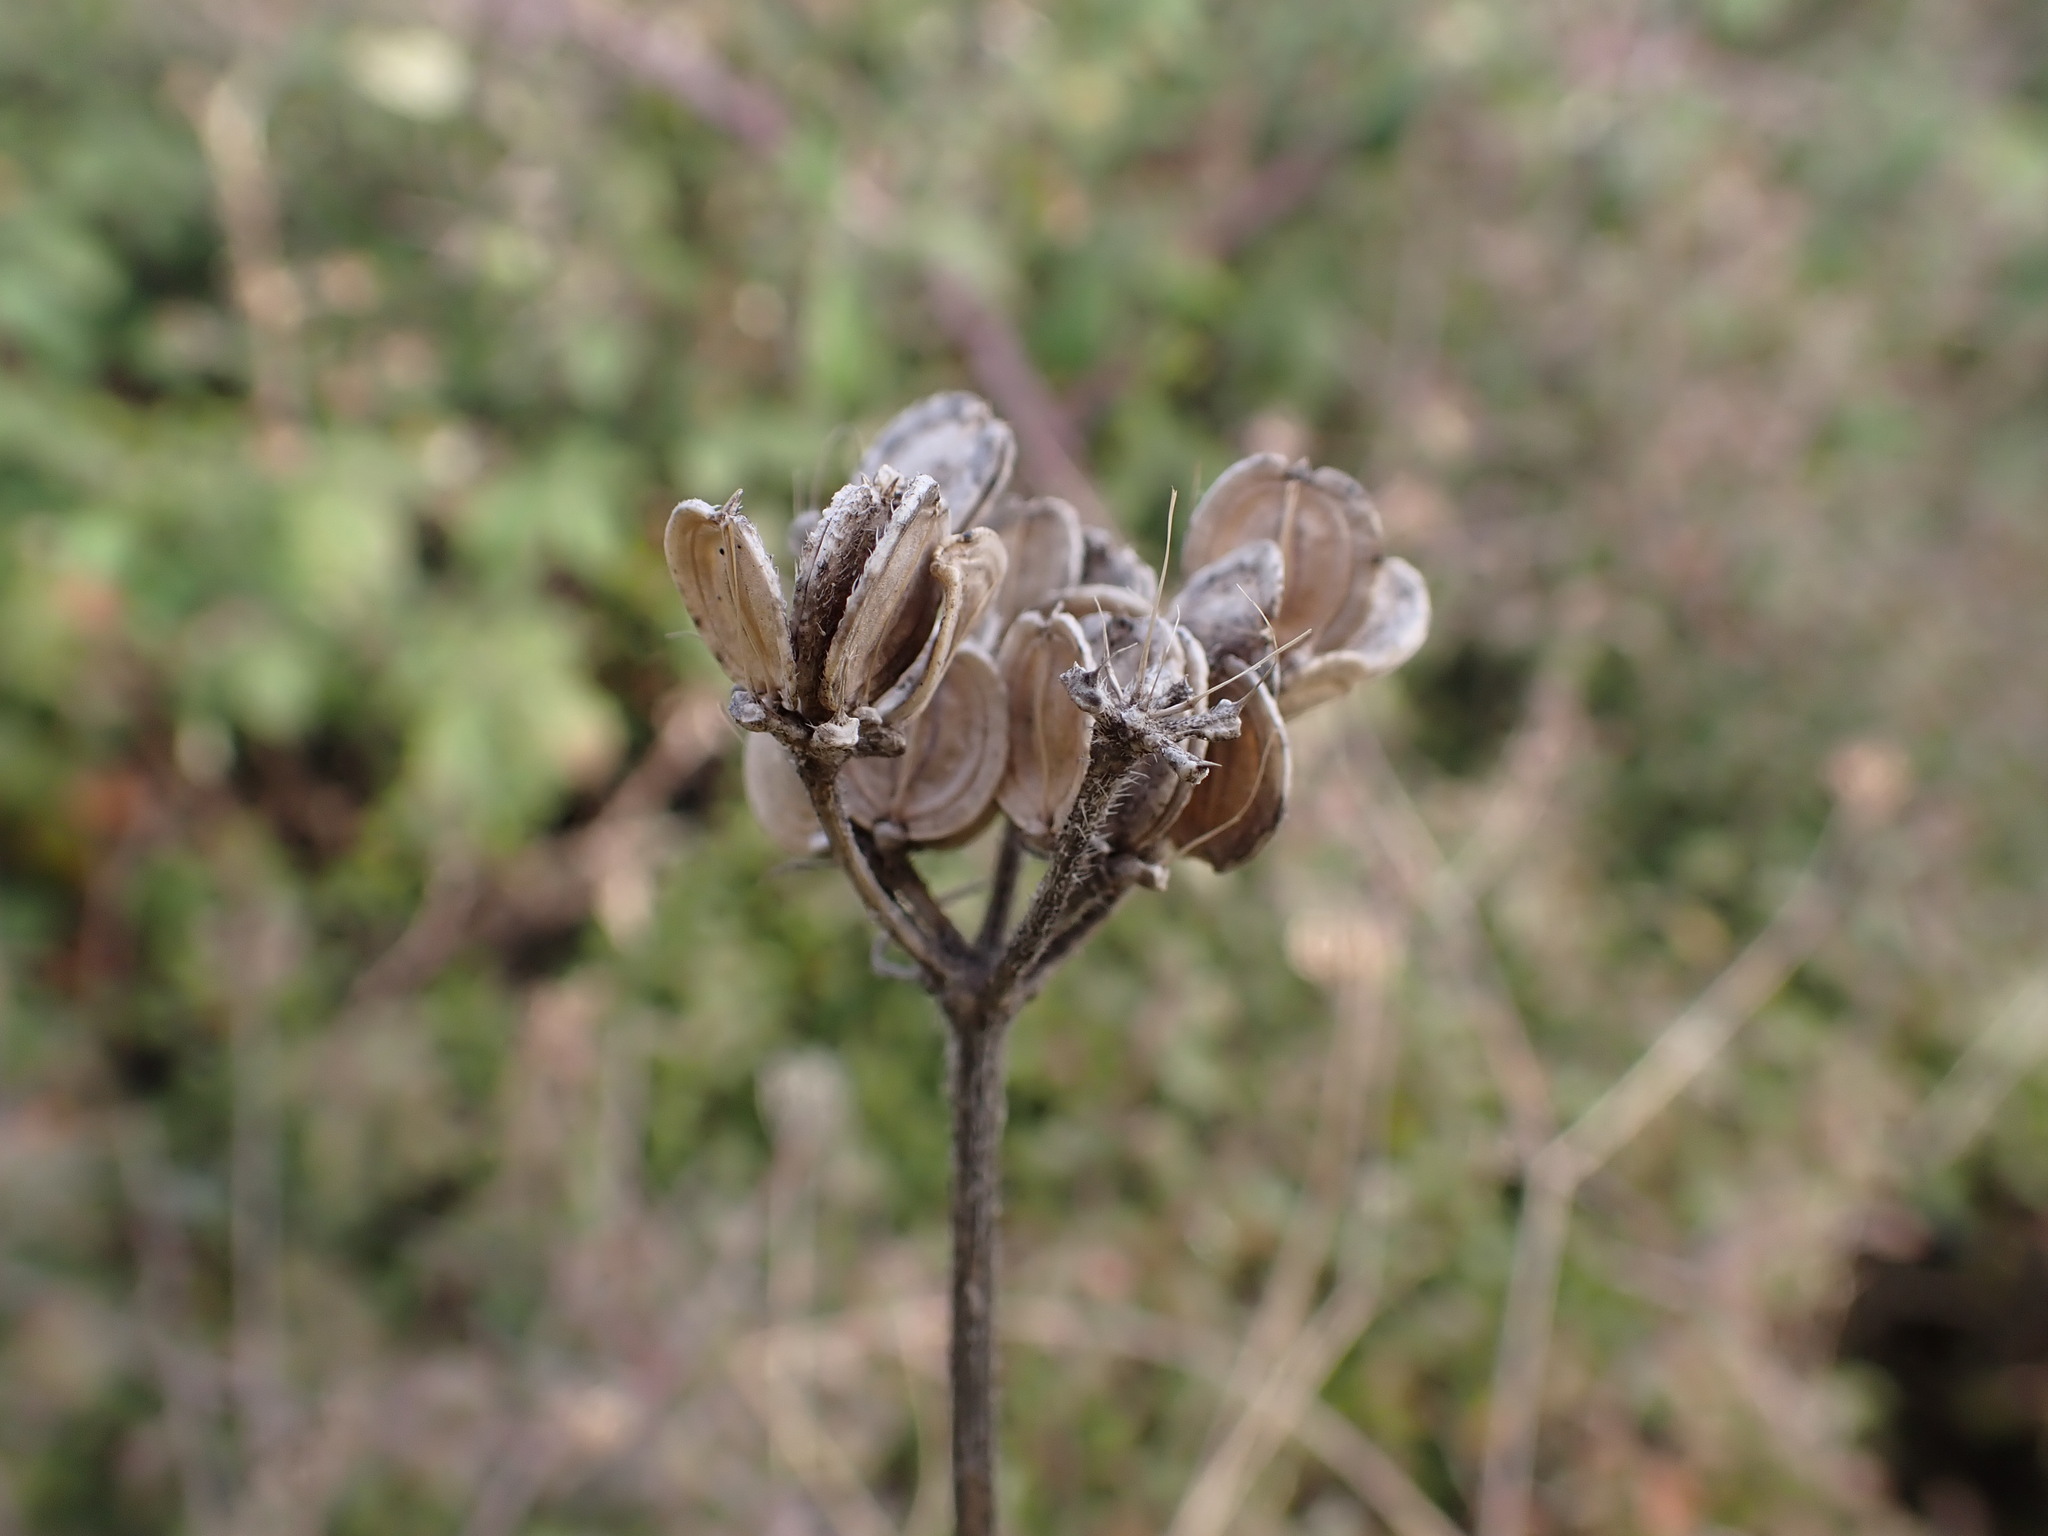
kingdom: Plantae
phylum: Tracheophyta
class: Magnoliopsida
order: Apiales
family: Apiaceae
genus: Tordylium
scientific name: Tordylium maximum
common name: Hartwort
